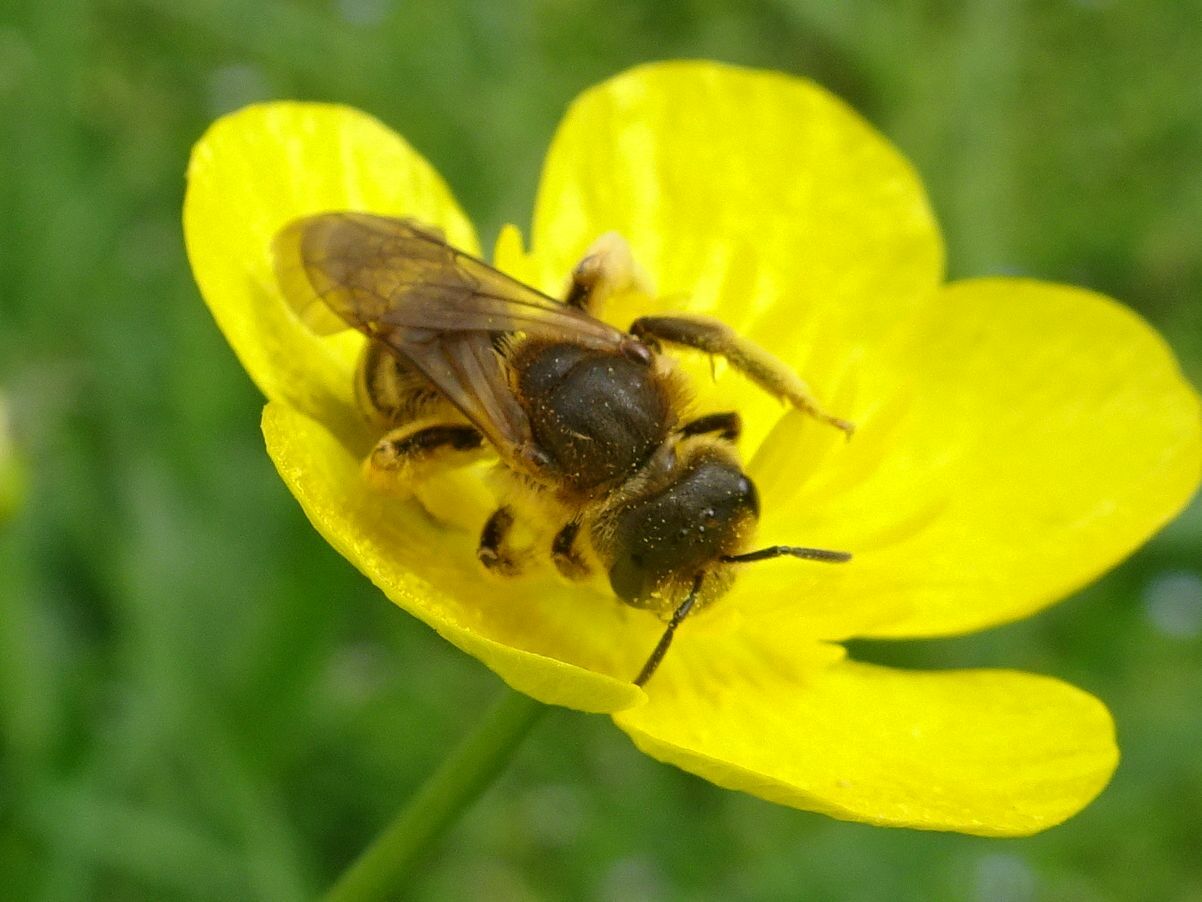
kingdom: Animalia
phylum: Arthropoda
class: Insecta
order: Hymenoptera
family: Halictidae
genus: Halictus
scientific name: Halictus scabiosae
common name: Great banded furrow bee
